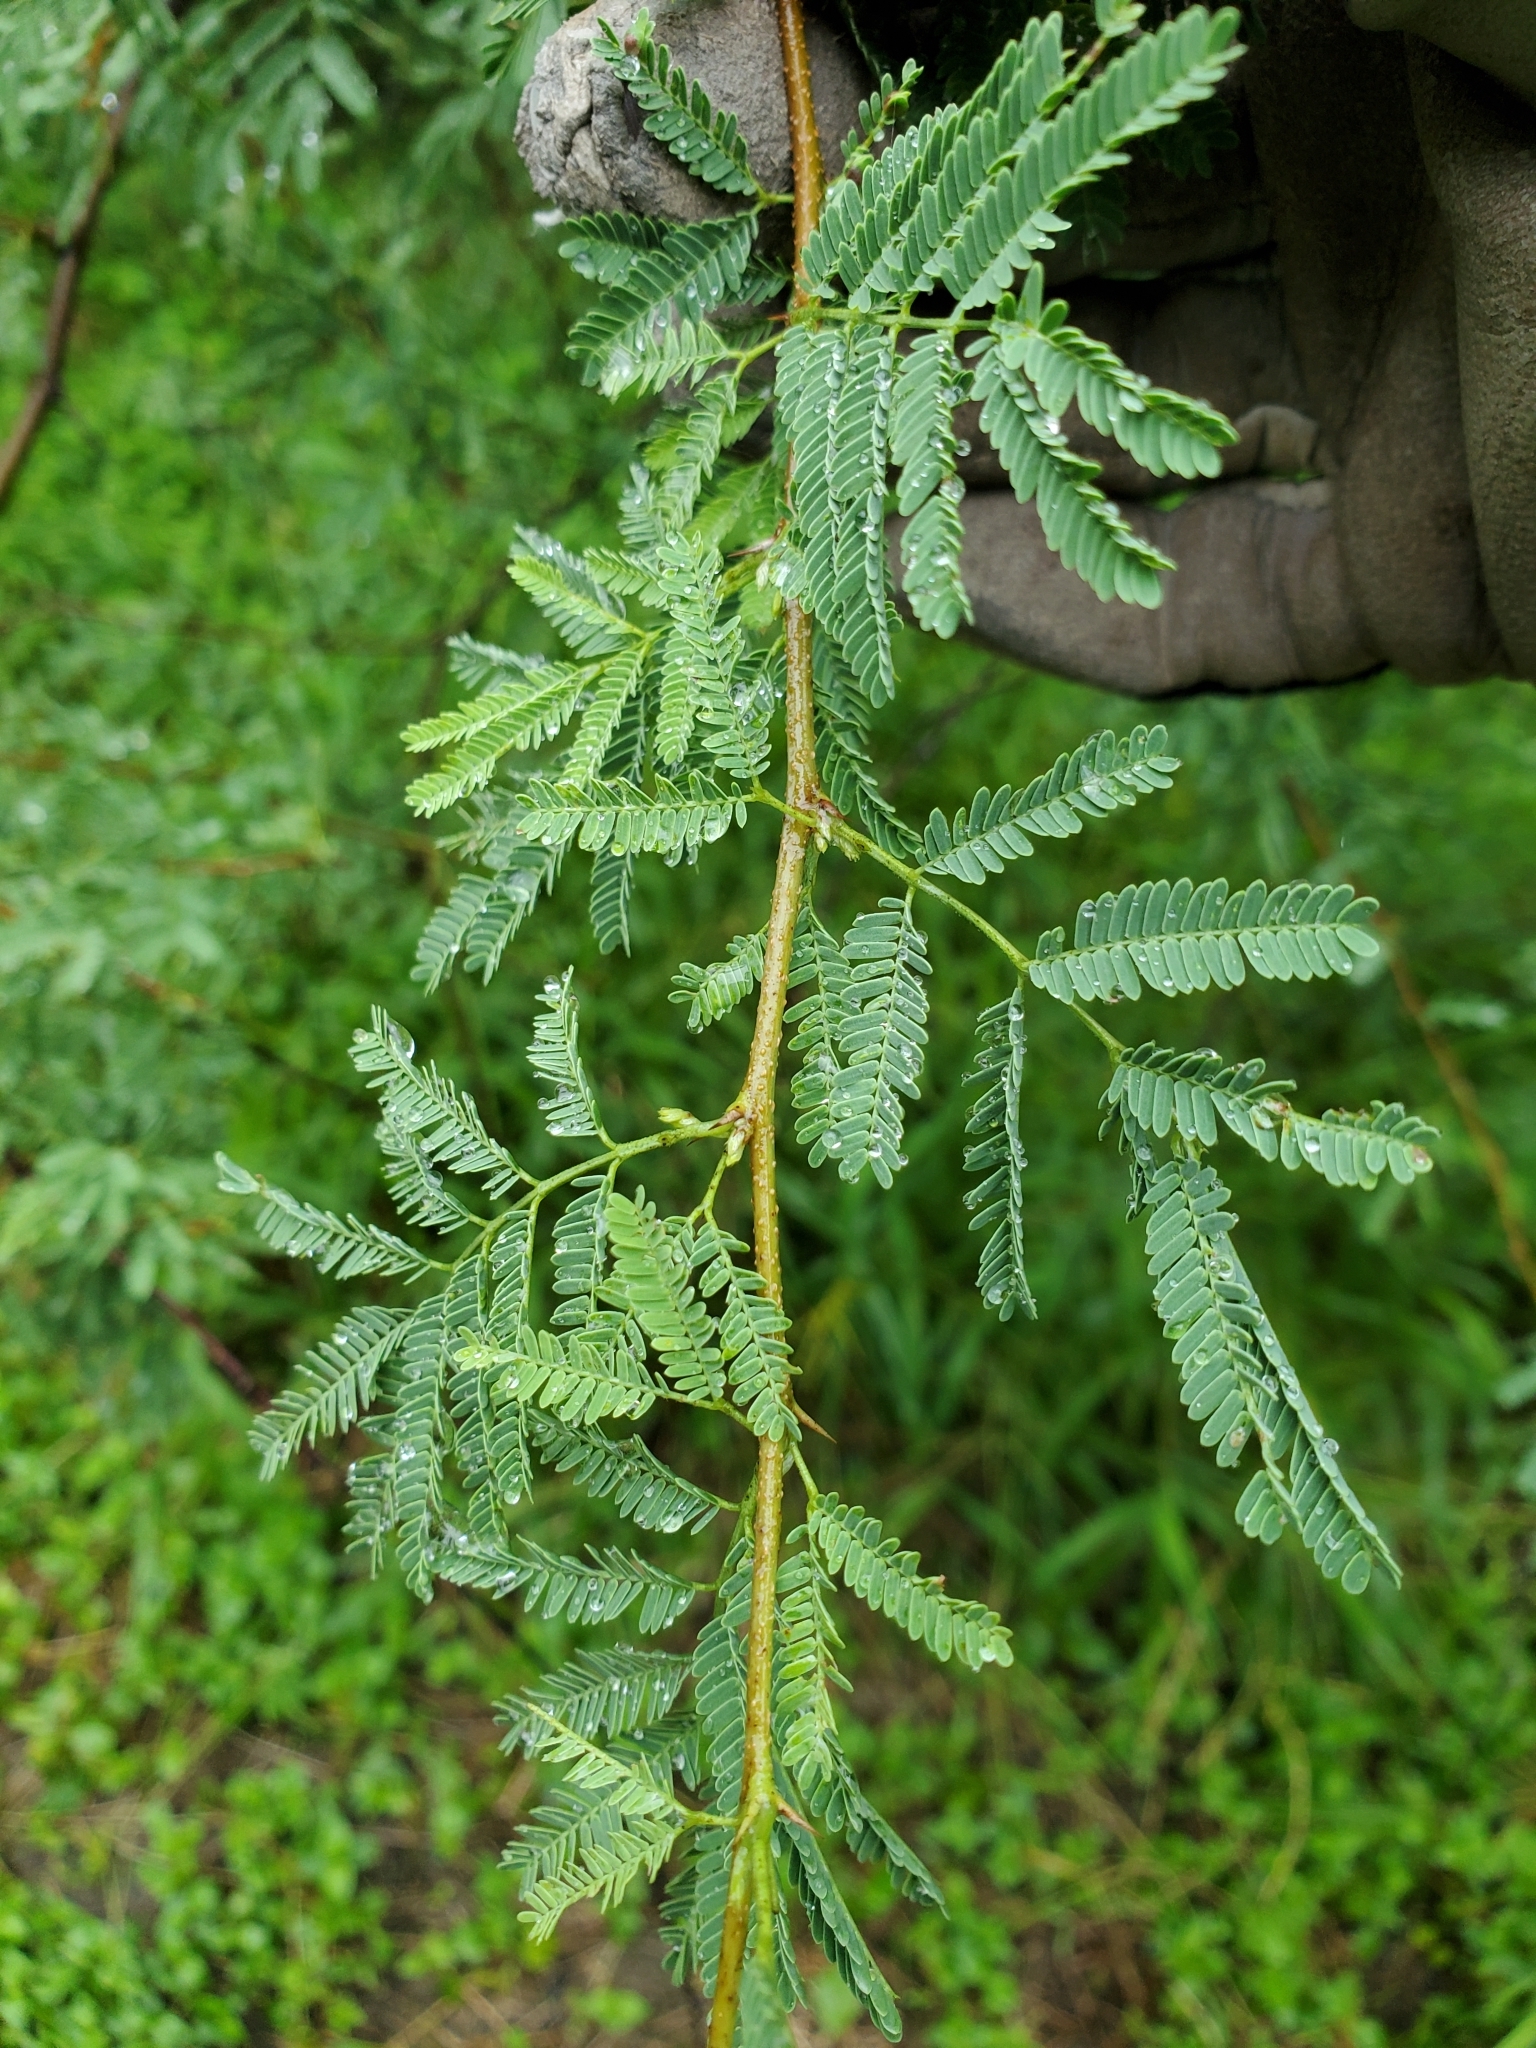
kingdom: Plantae
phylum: Tracheophyta
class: Magnoliopsida
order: Fabales
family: Fabaceae
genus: Vachellia
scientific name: Vachellia farnesiana
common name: Sweet acacia
